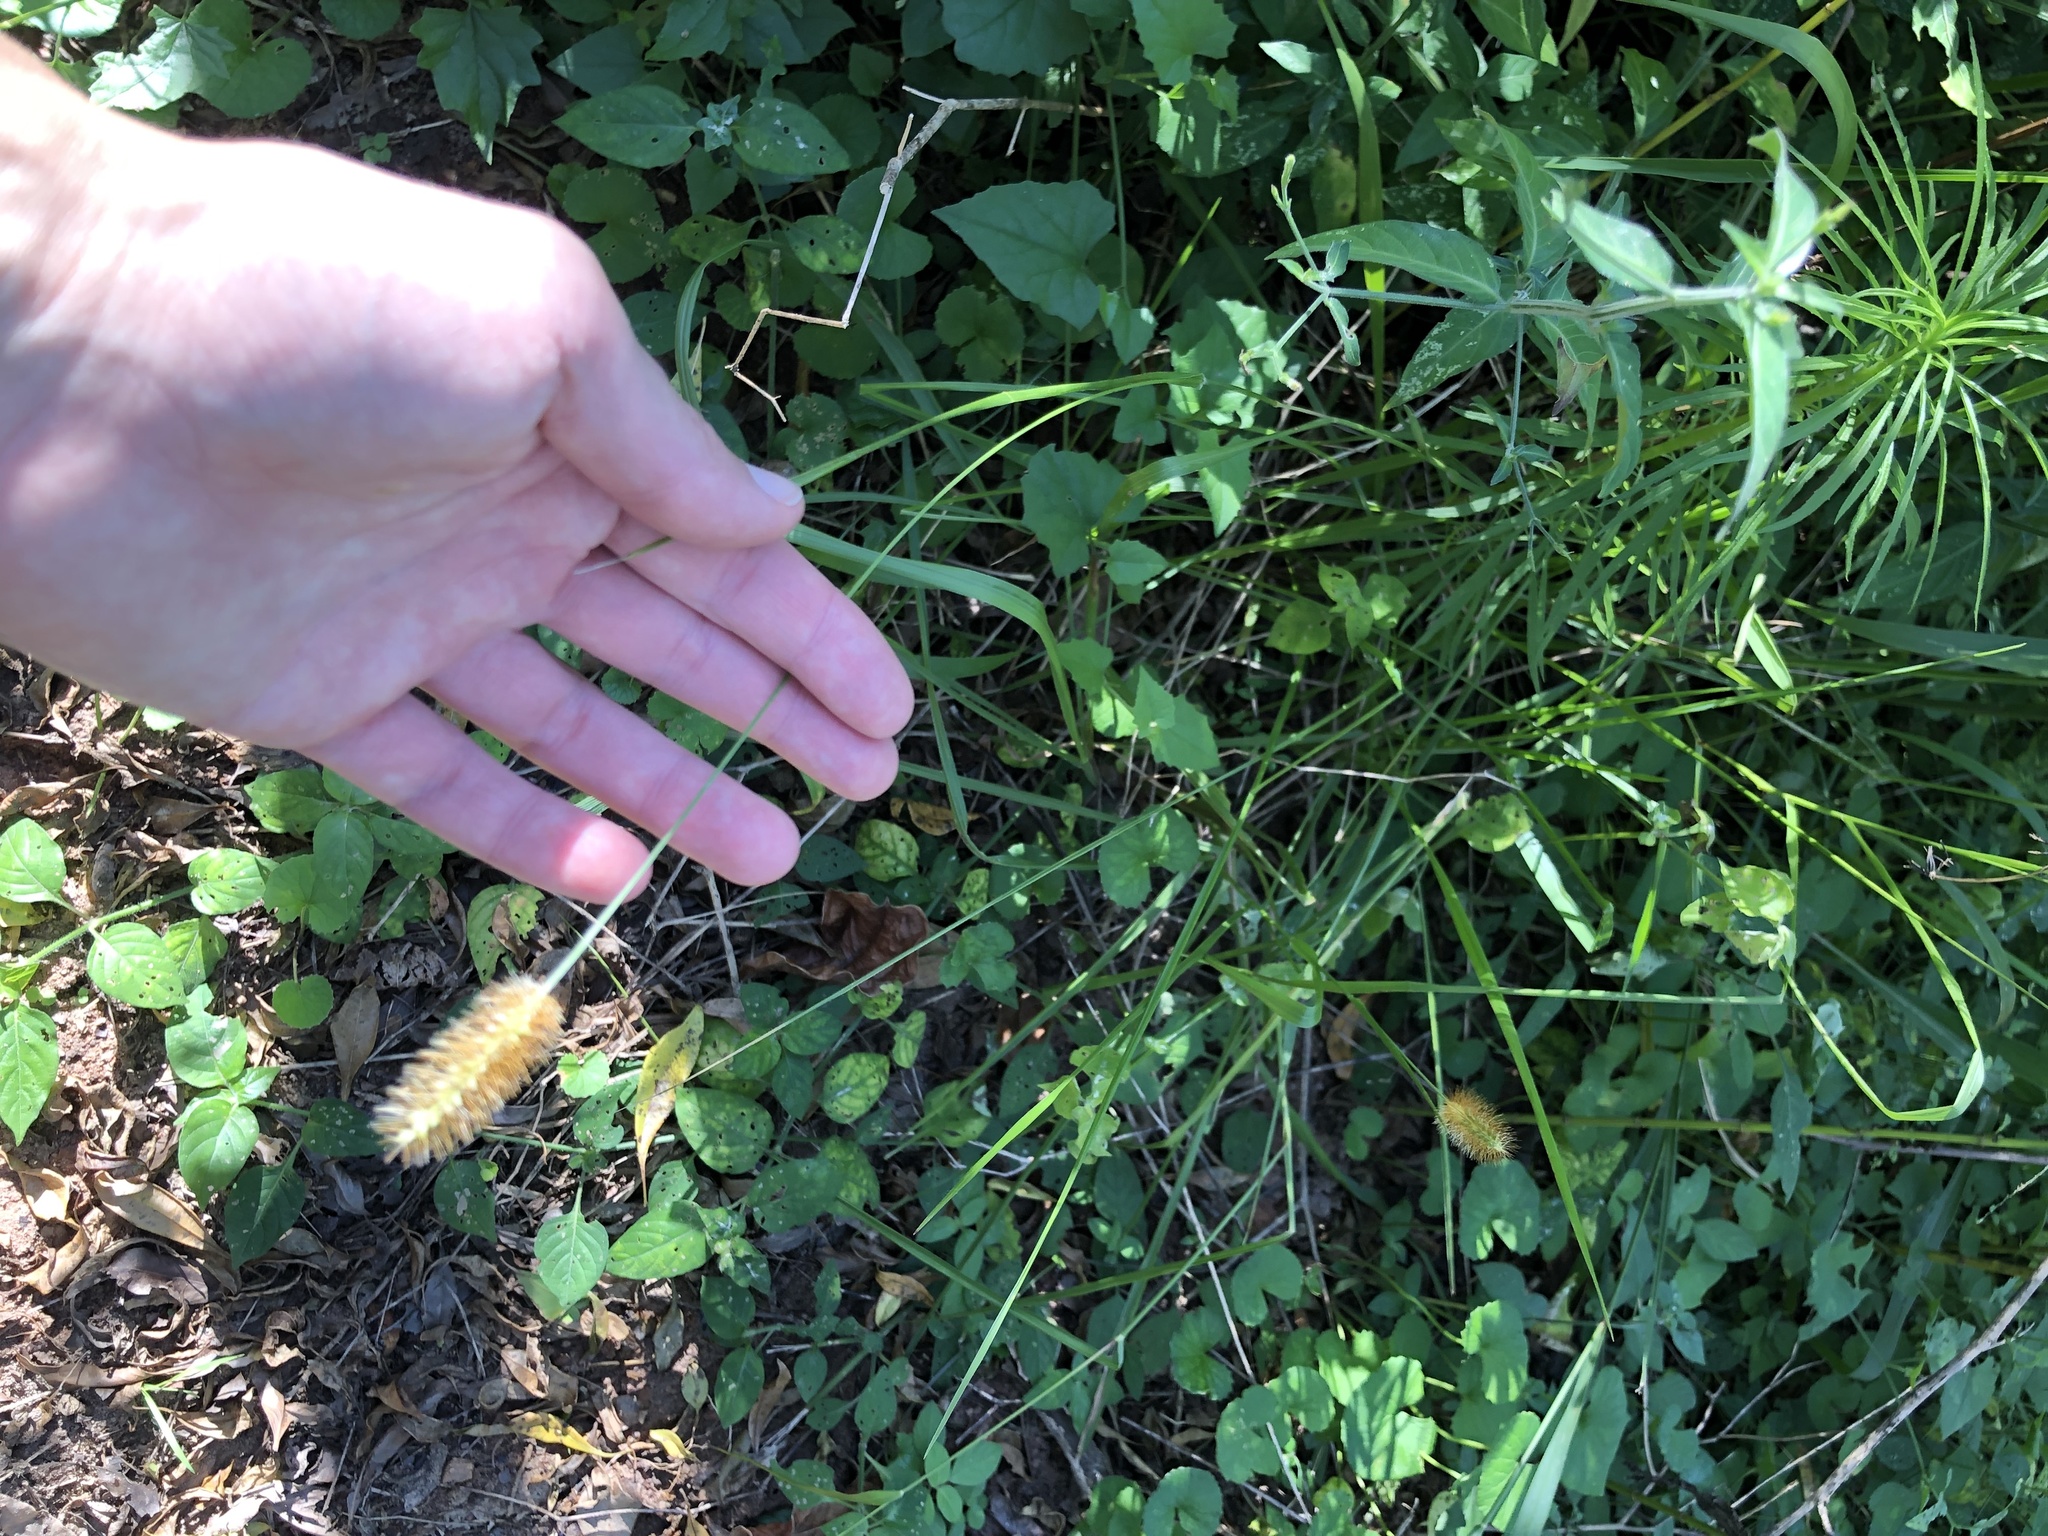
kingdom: Plantae
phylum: Tracheophyta
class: Liliopsida
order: Poales
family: Poaceae
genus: Setaria
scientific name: Setaria sphacelata
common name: African bristlegrass
